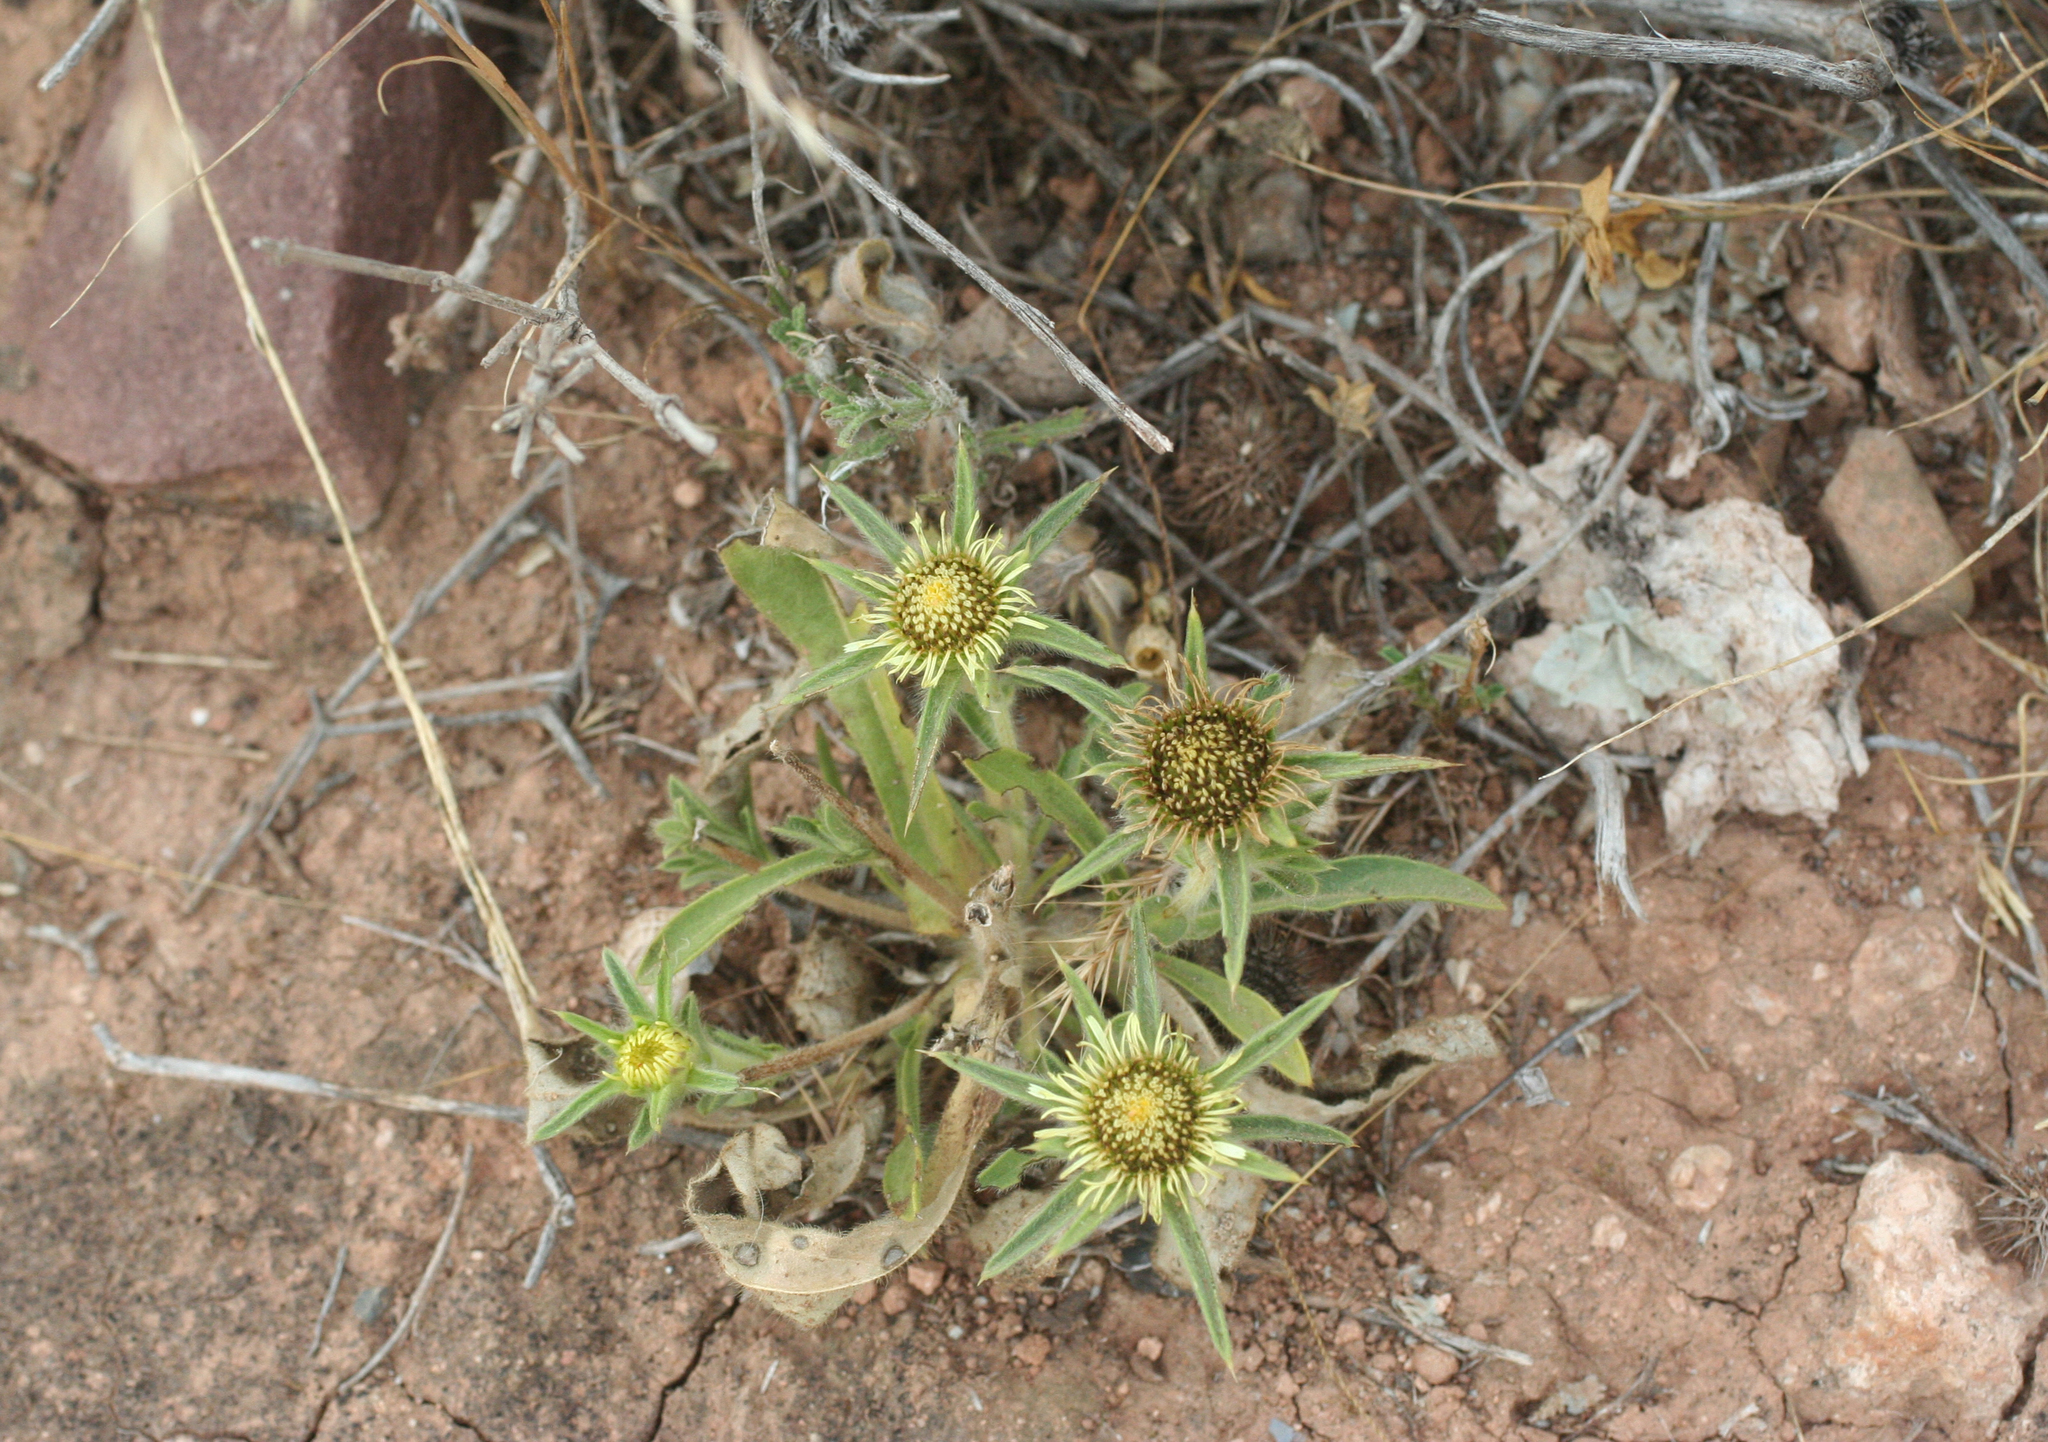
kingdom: Plantae
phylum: Tracheophyta
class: Magnoliopsida
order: Asterales
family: Asteraceae
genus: Pallenis
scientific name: Pallenis spinosa
